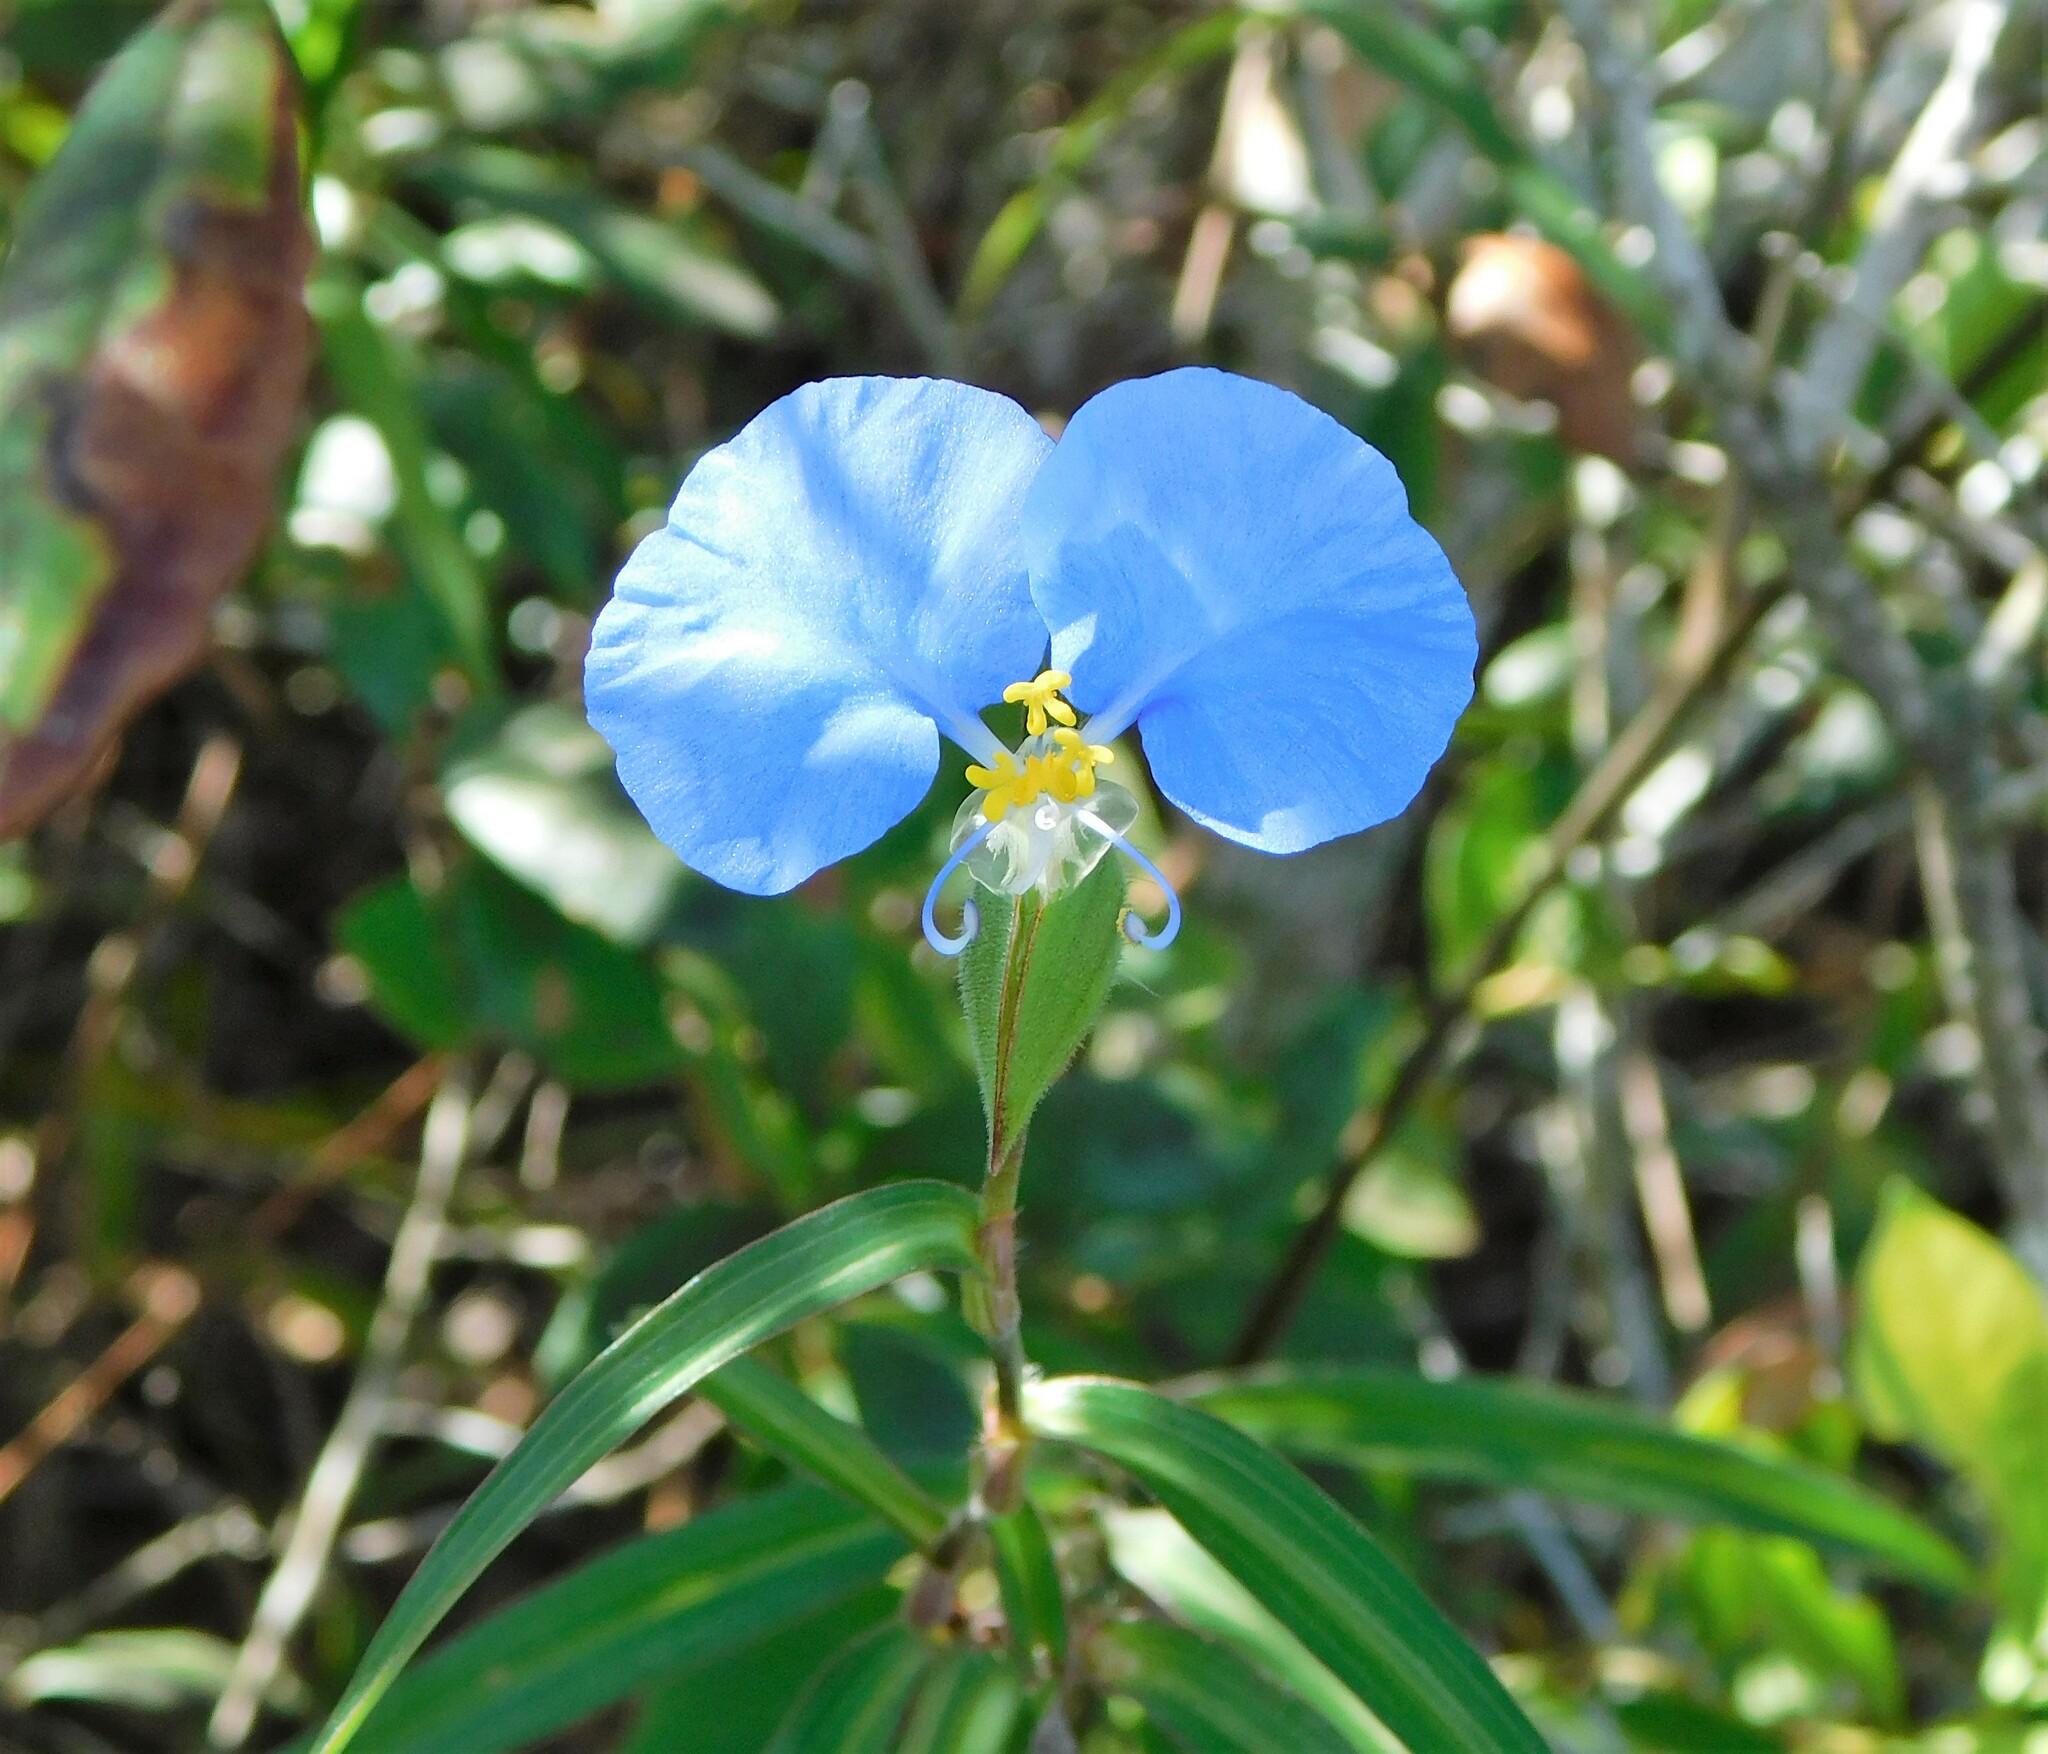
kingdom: Plantae
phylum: Tracheophyta
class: Liliopsida
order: Commelinales
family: Commelinaceae
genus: Commelina
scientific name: Commelina erecta
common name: Blousel blommetjie
